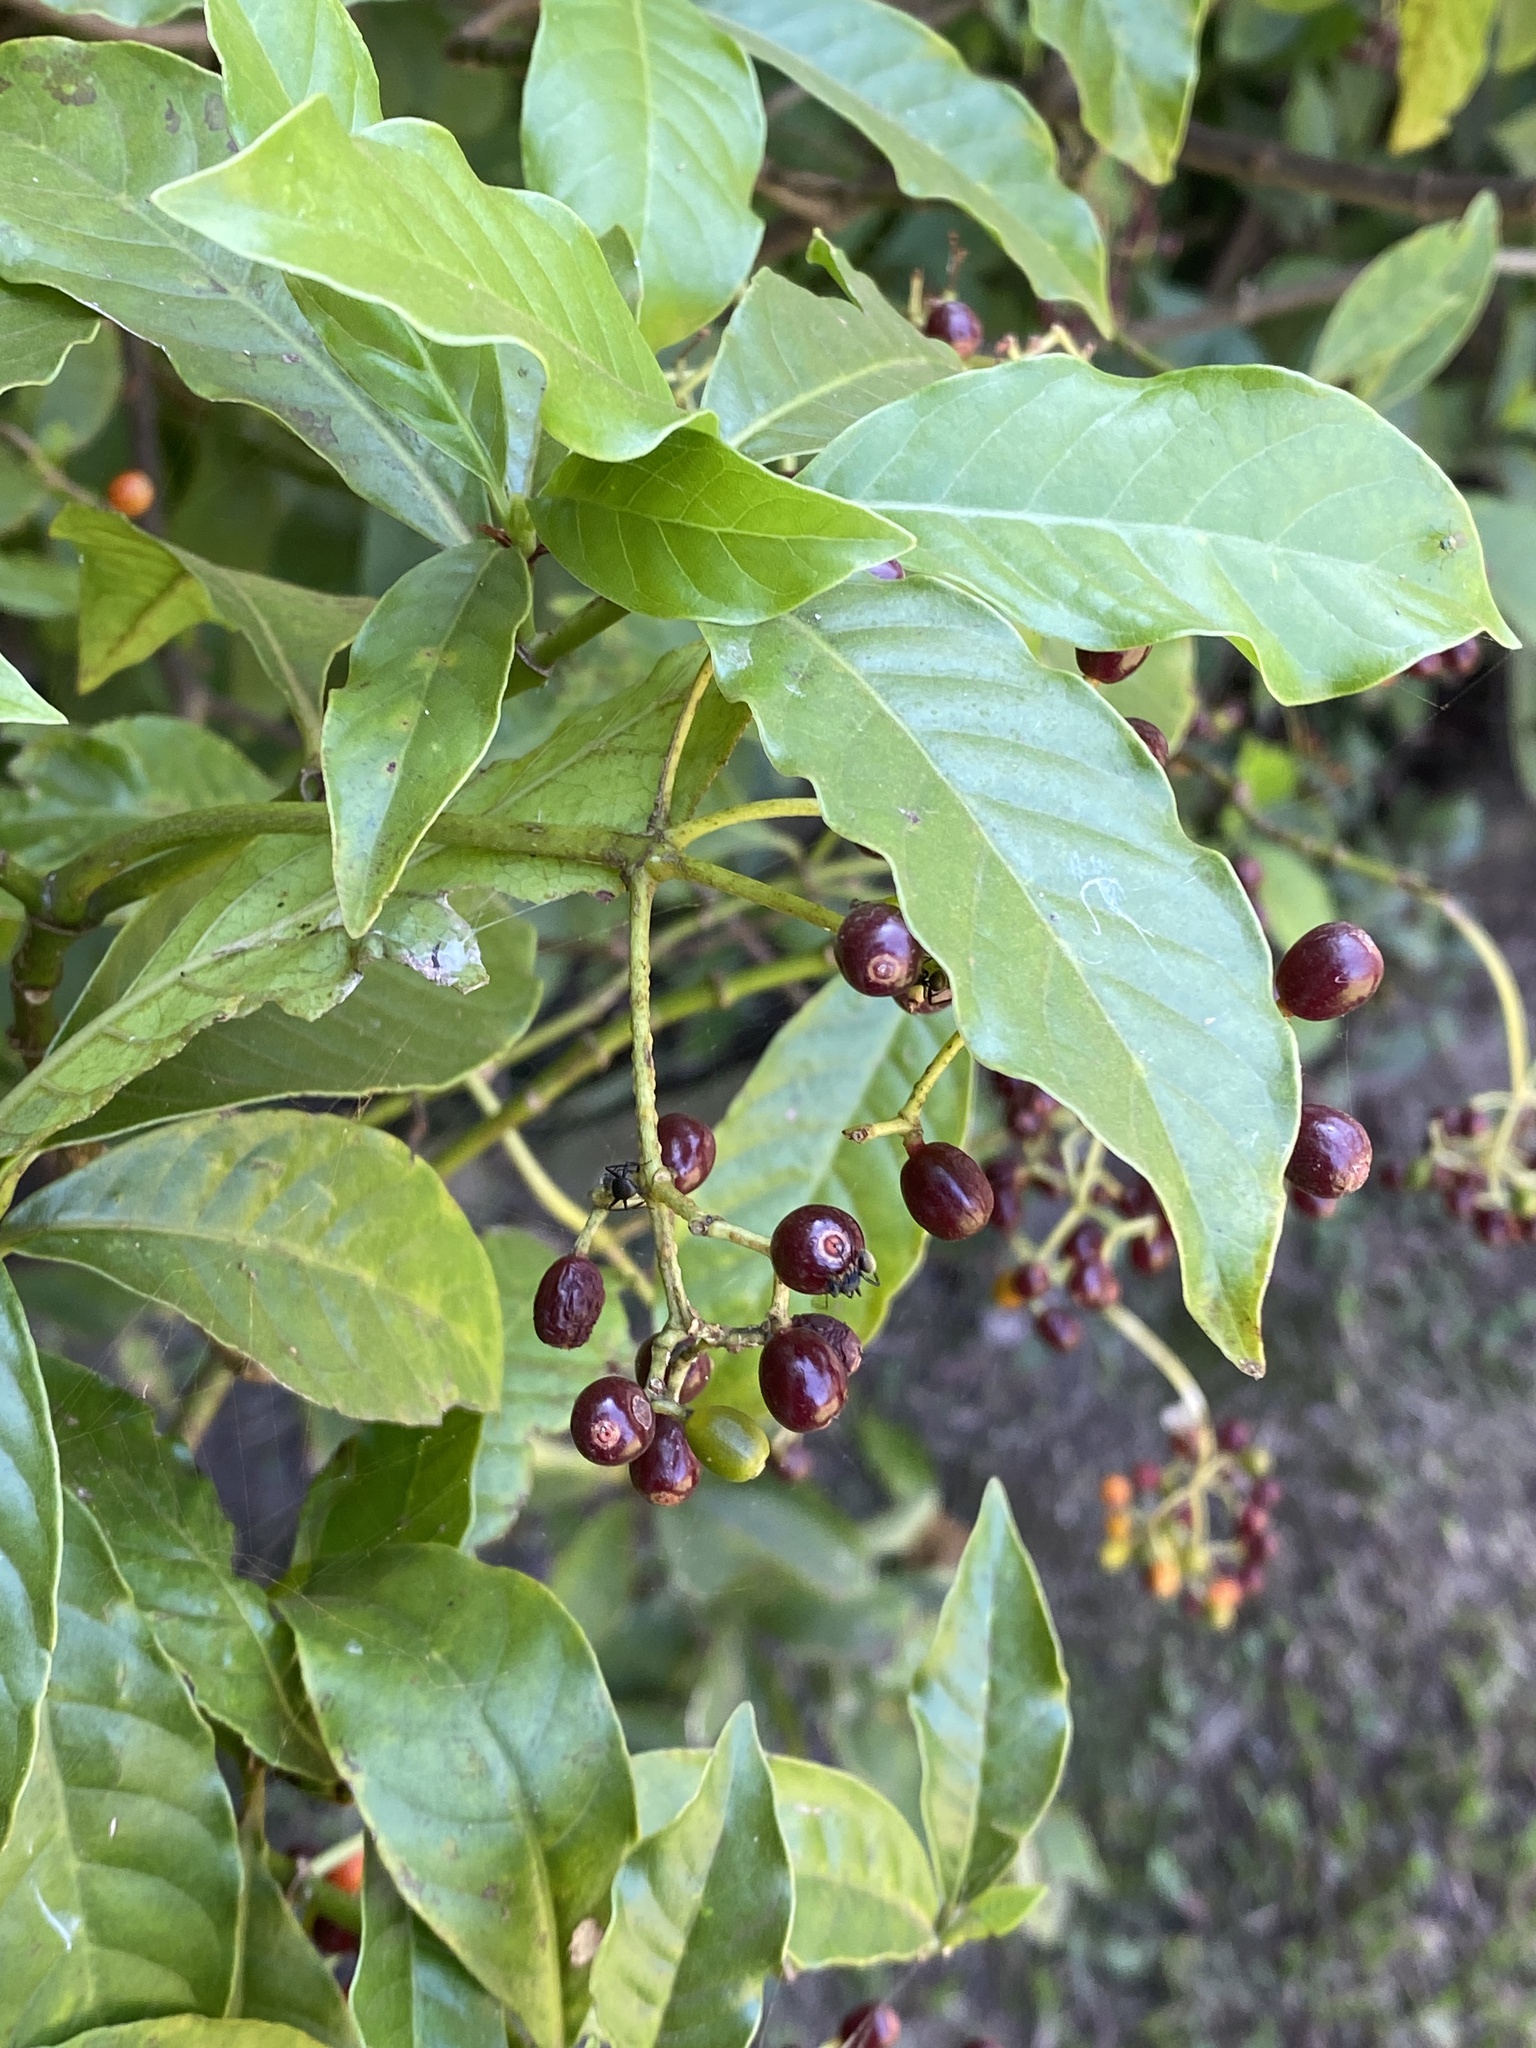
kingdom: Plantae
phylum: Tracheophyta
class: Magnoliopsida
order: Gentianales
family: Rubiaceae
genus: Psychotria
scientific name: Psychotria carthagenensis
